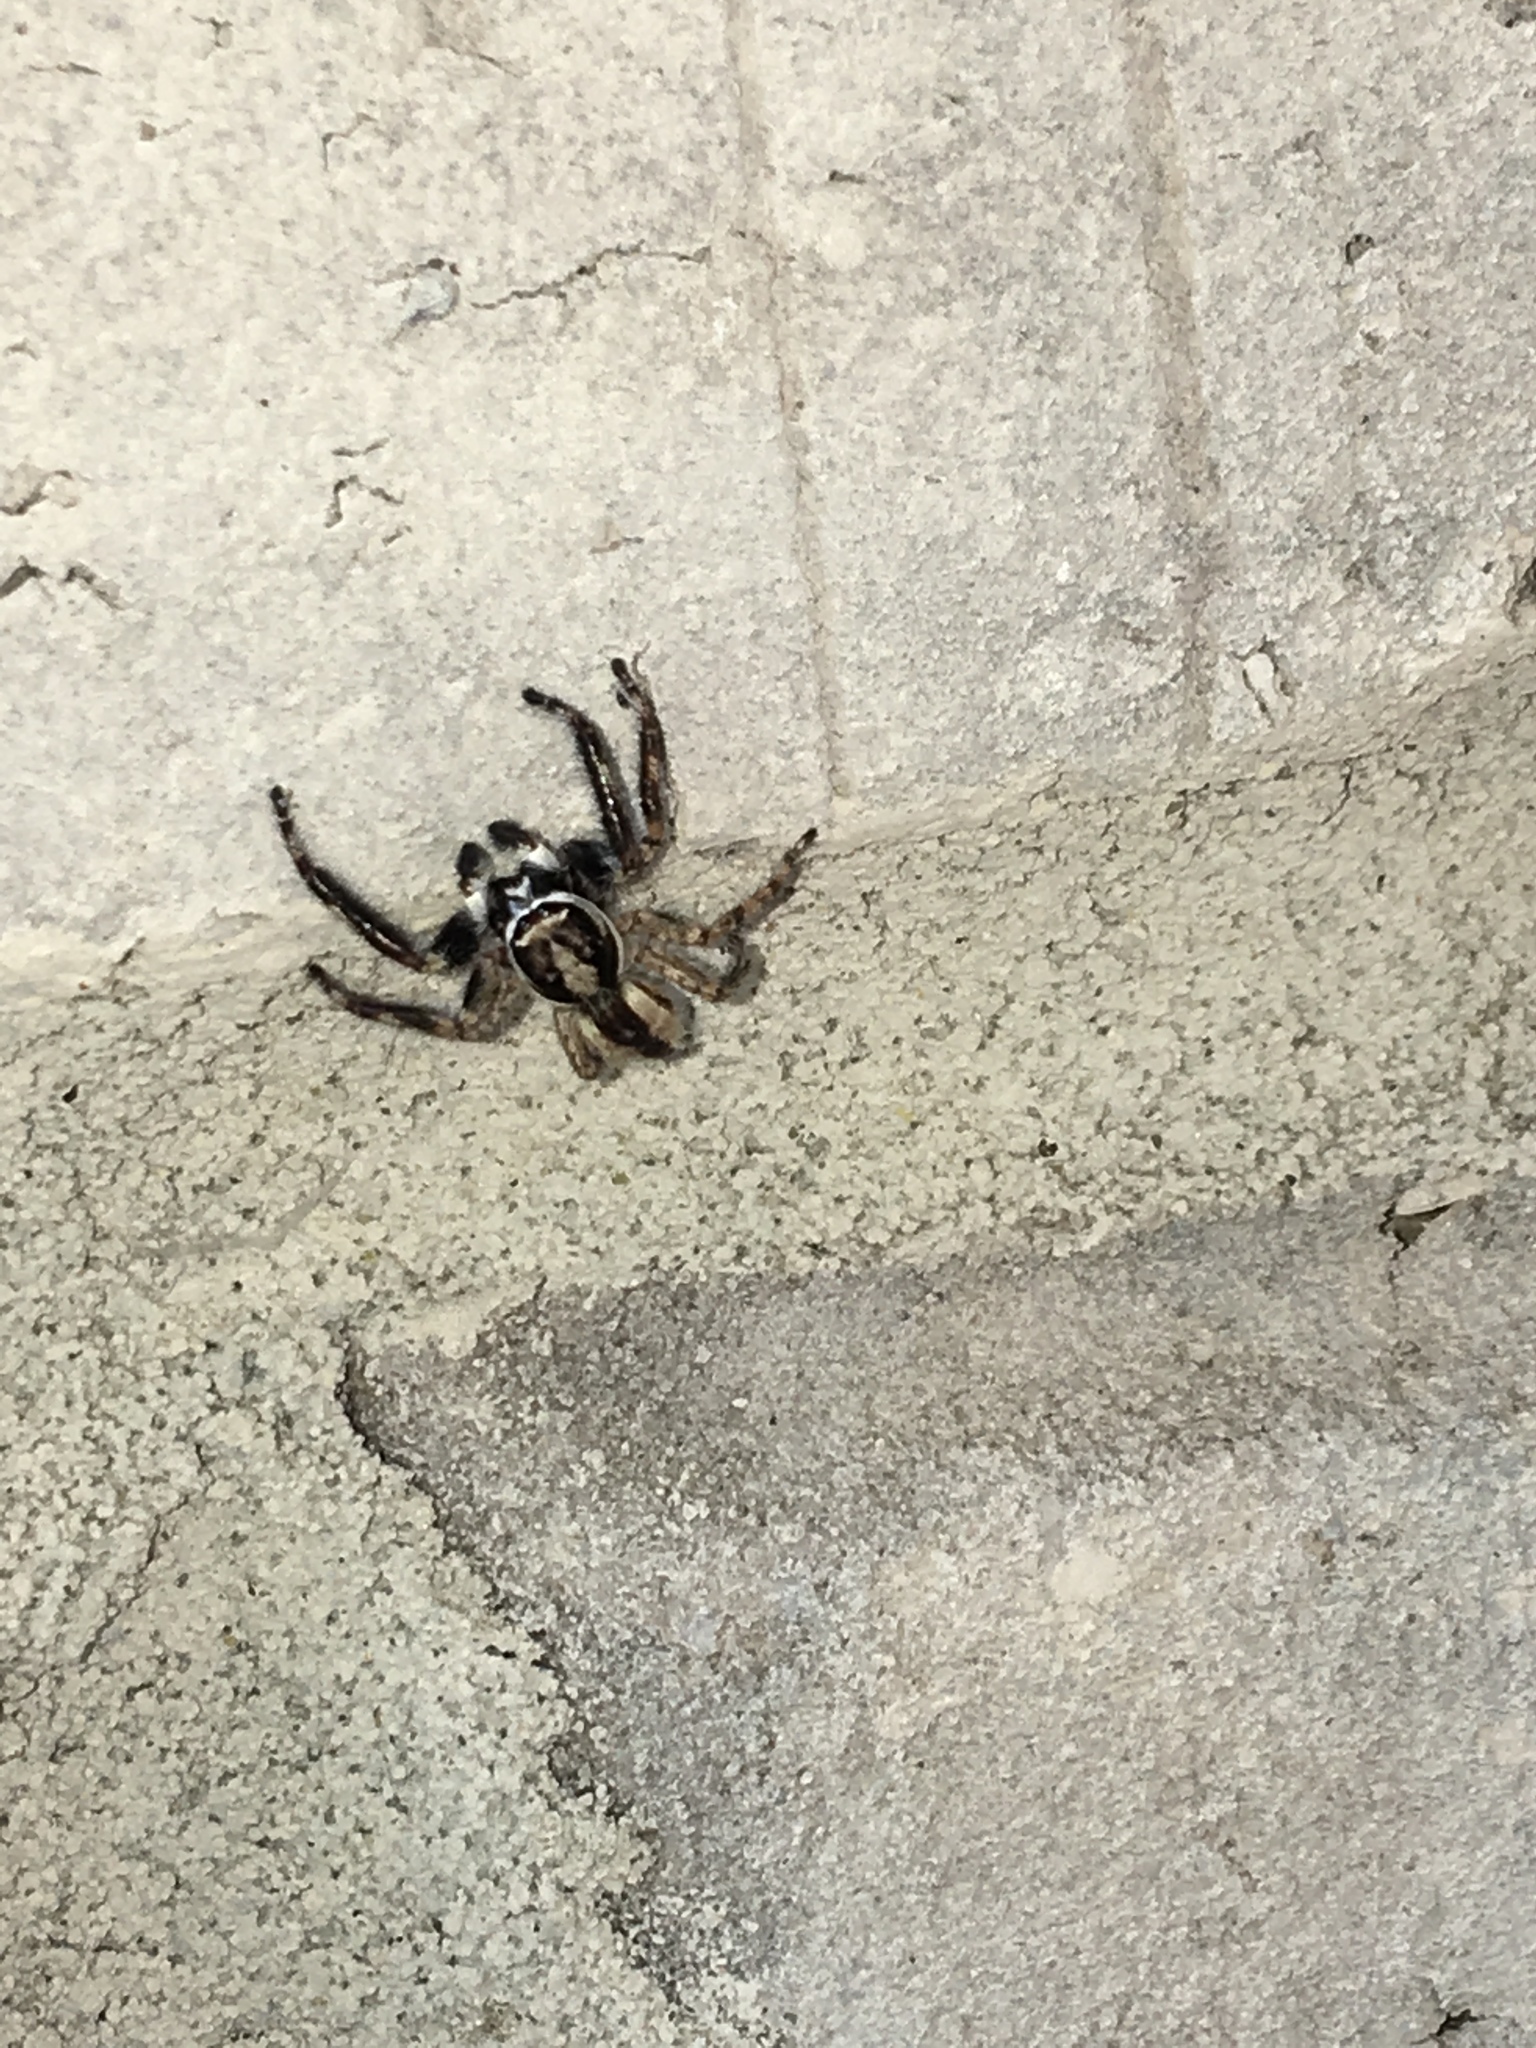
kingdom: Animalia
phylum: Arthropoda
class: Arachnida
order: Araneae
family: Salticidae
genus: Menemerus
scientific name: Menemerus bivittatus
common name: Gray wall jumper
